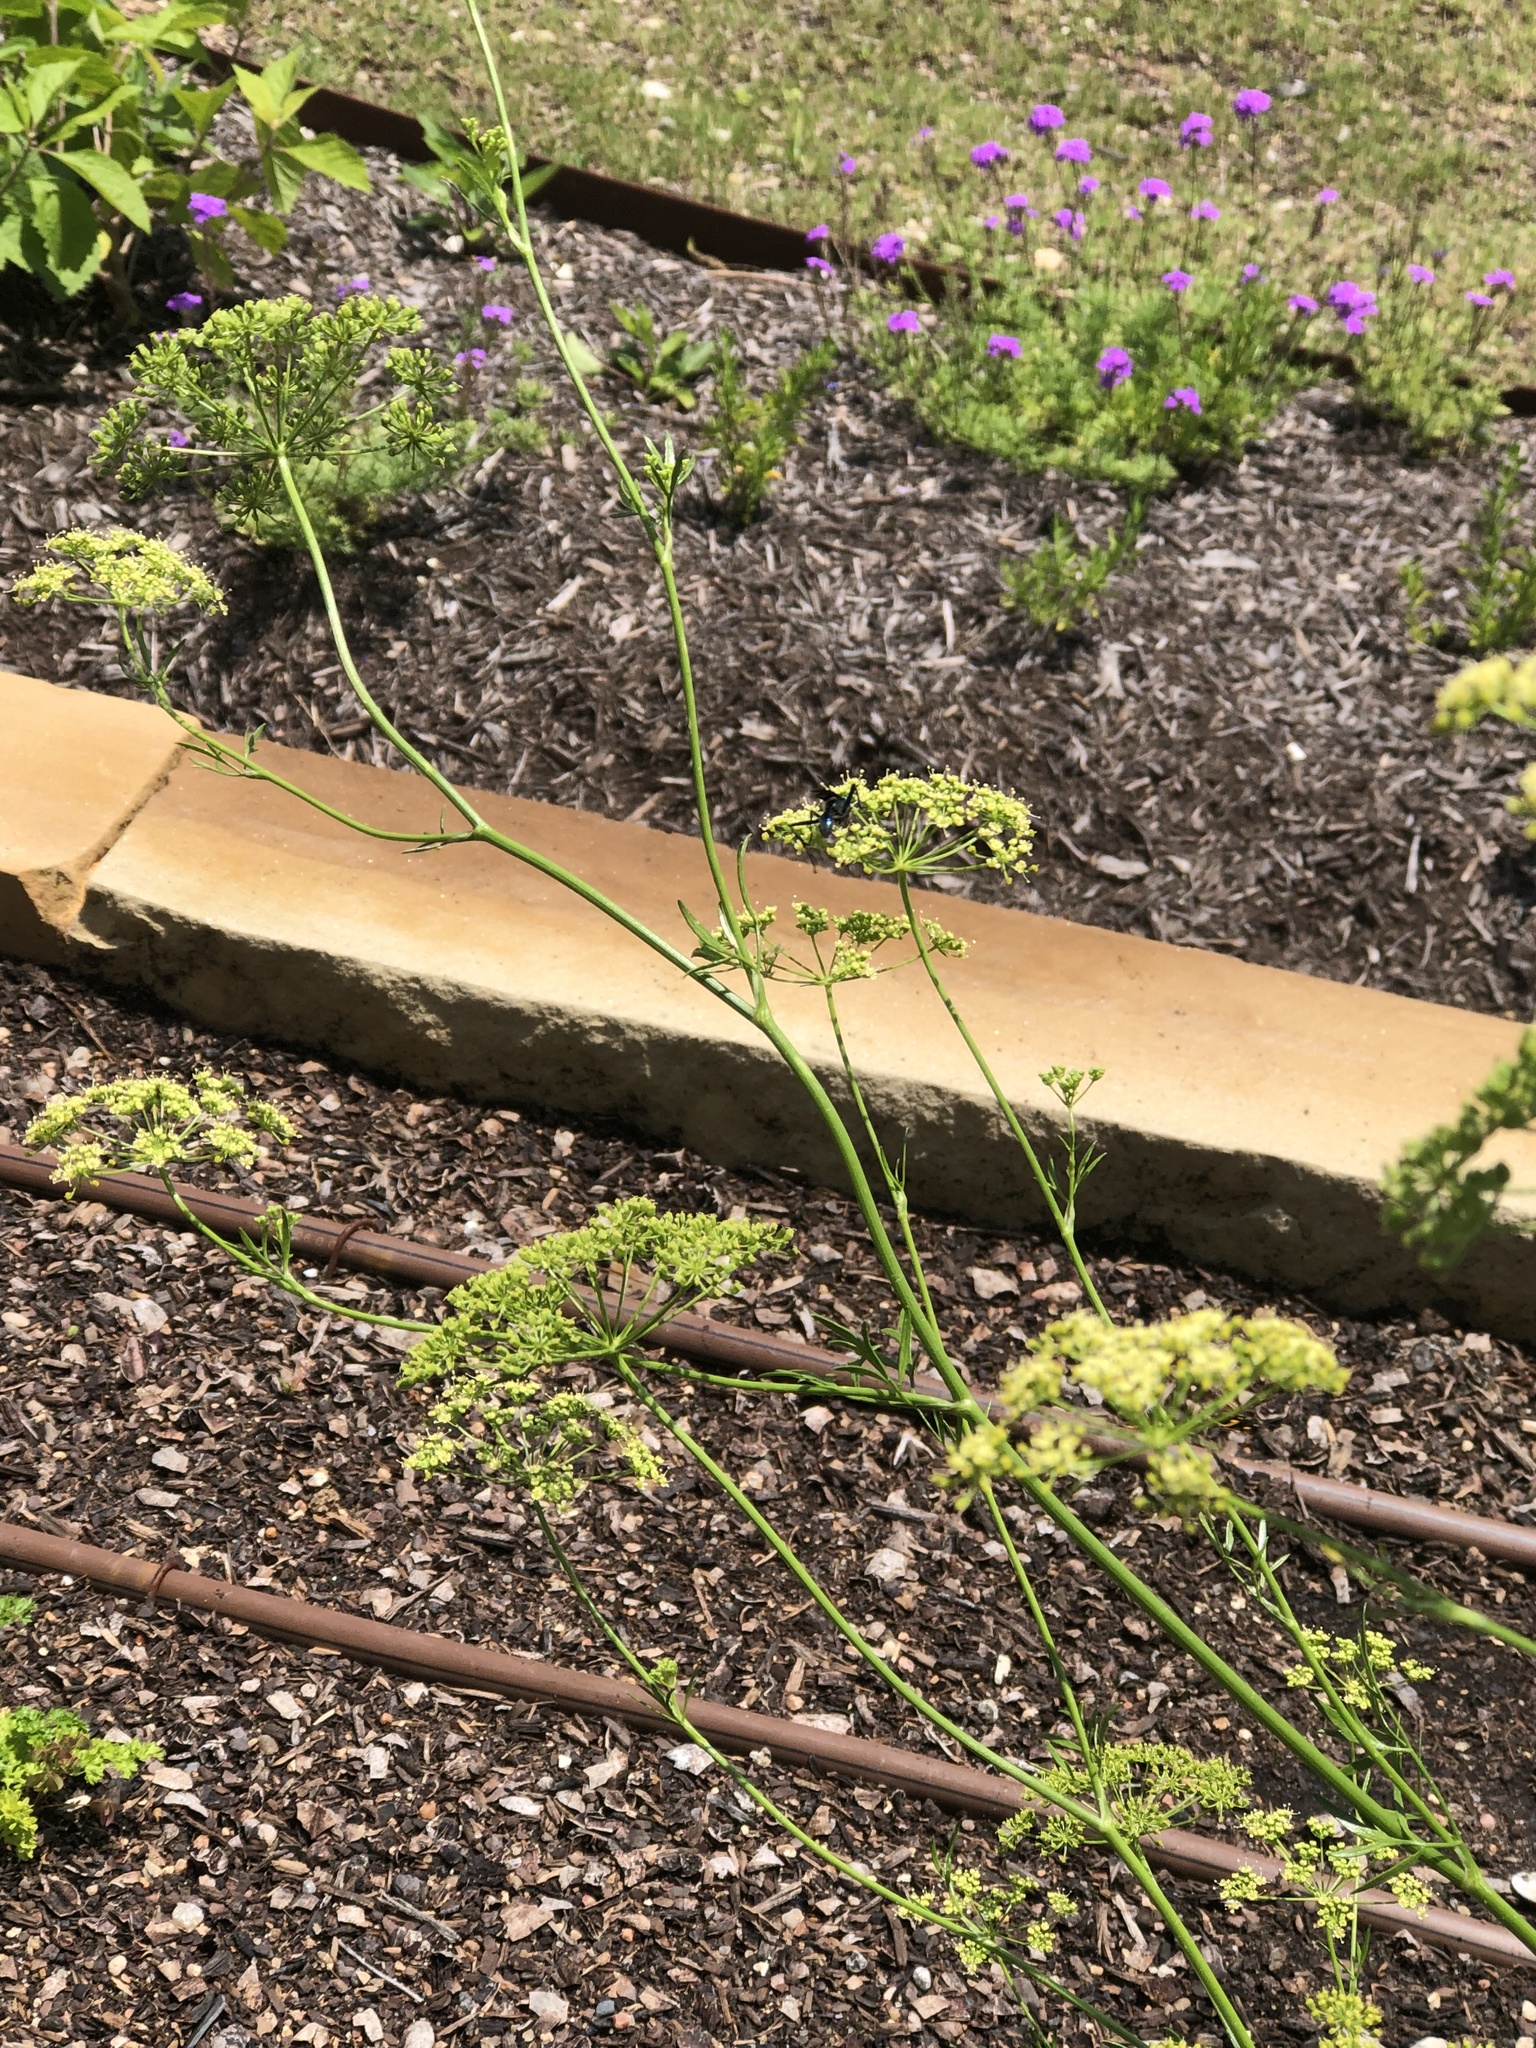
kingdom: Animalia
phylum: Arthropoda
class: Insecta
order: Hymenoptera
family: Sphecidae
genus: Chalybion
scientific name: Chalybion
